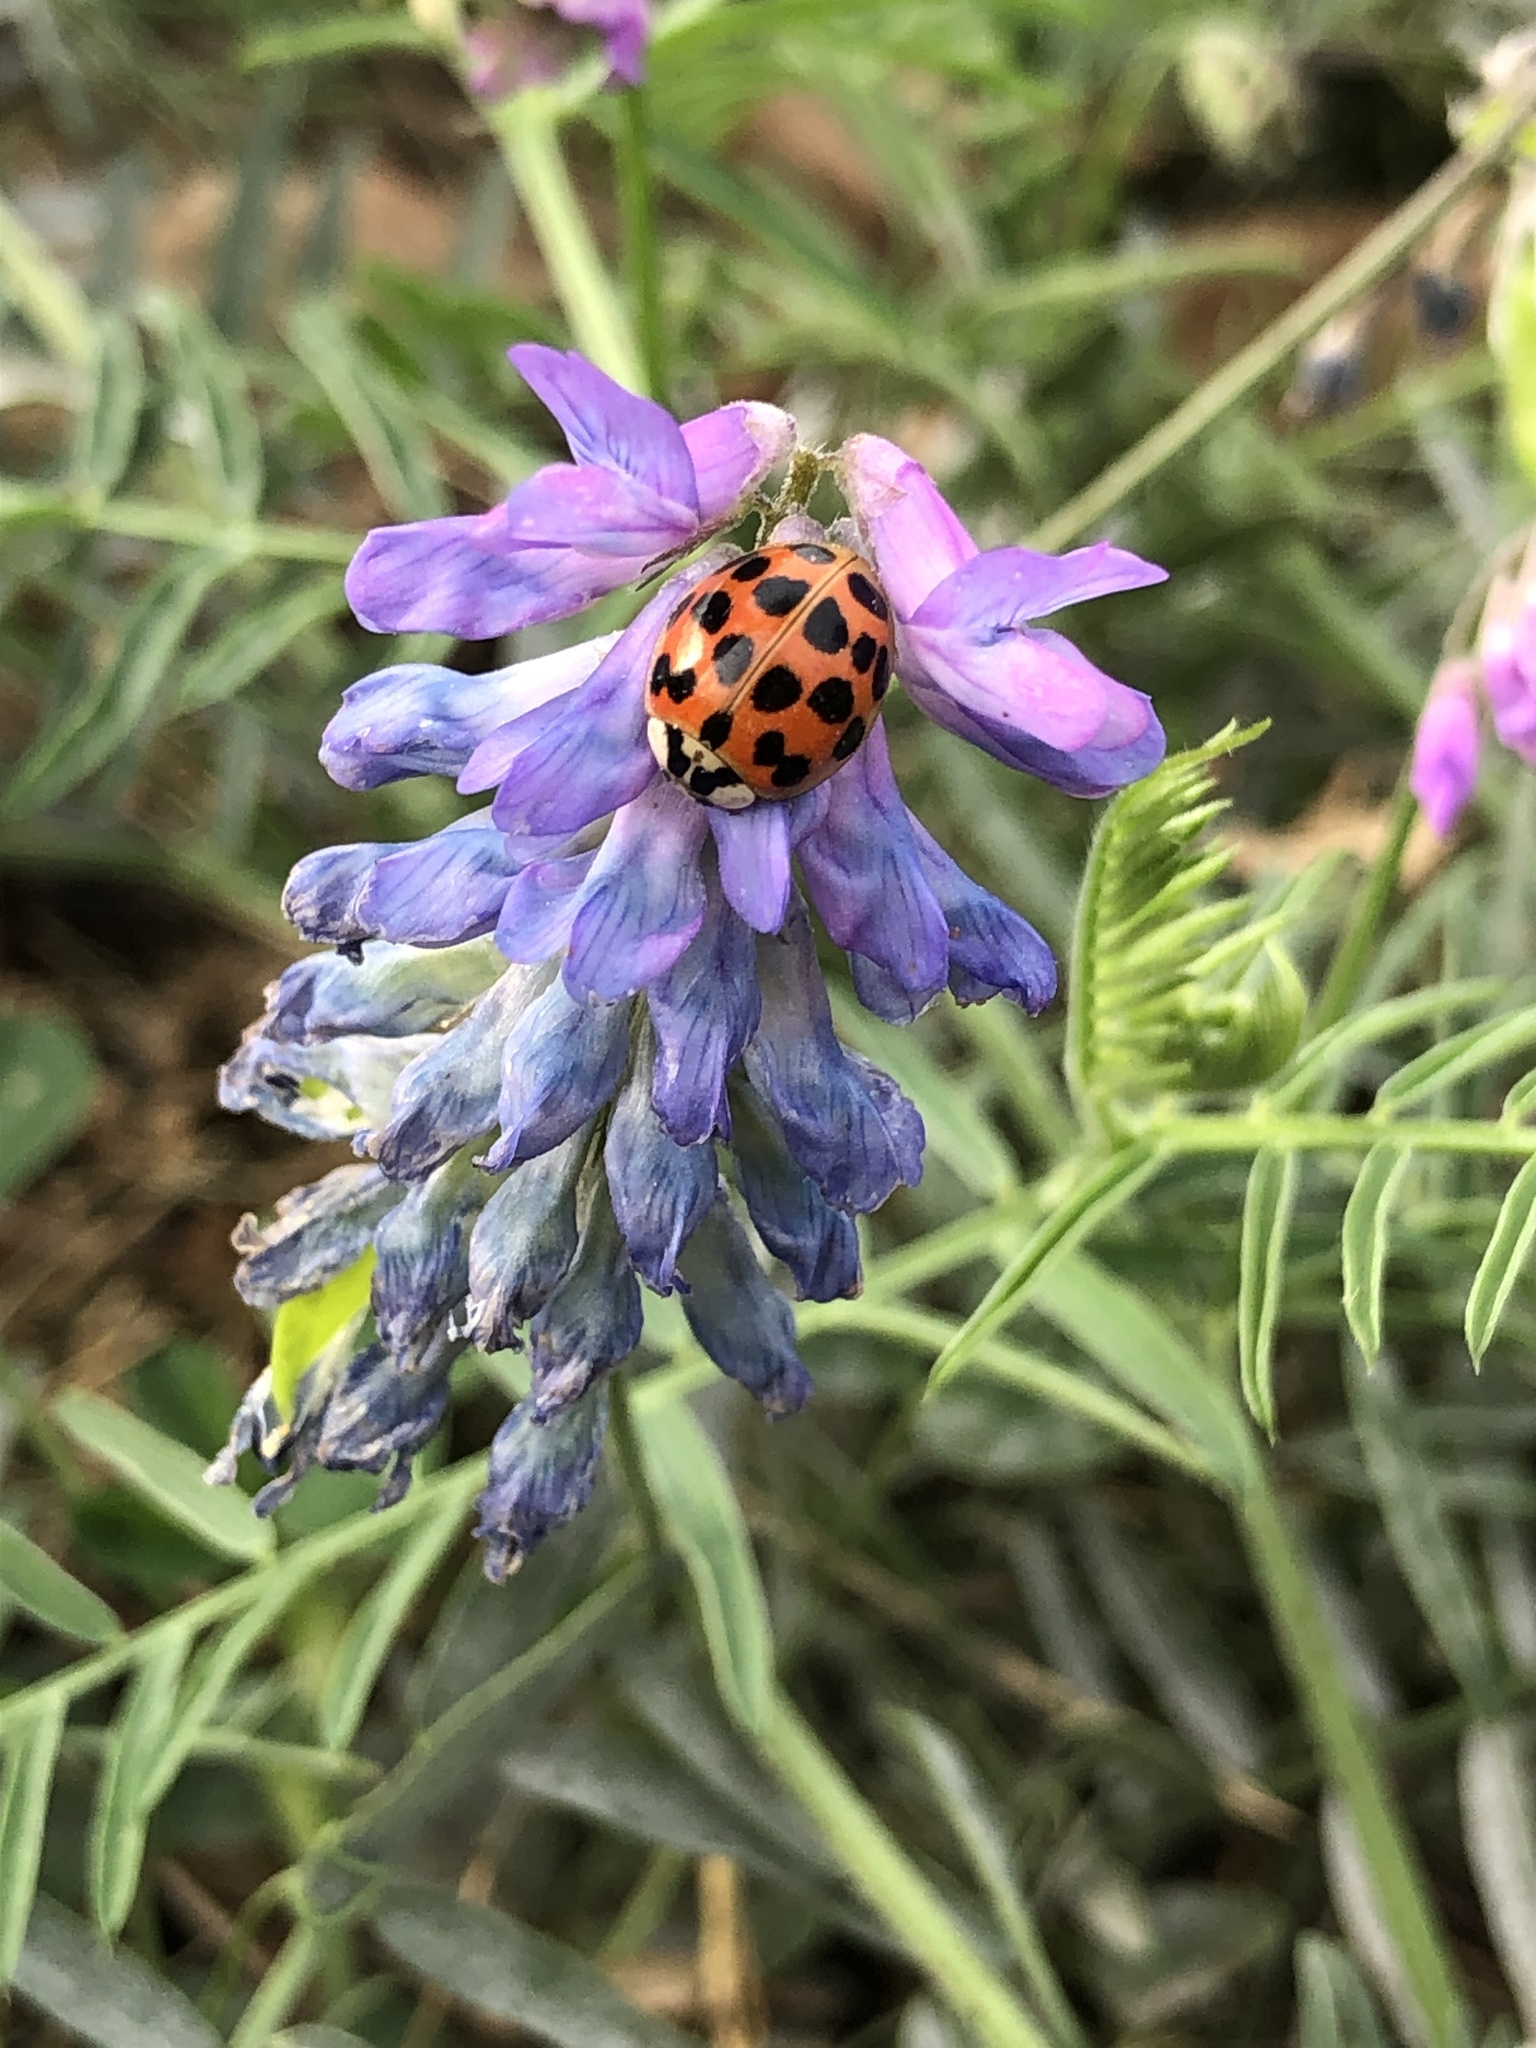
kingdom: Animalia
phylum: Arthropoda
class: Insecta
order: Coleoptera
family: Coccinellidae
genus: Harmonia
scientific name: Harmonia axyridis
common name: Harlequin ladybird
